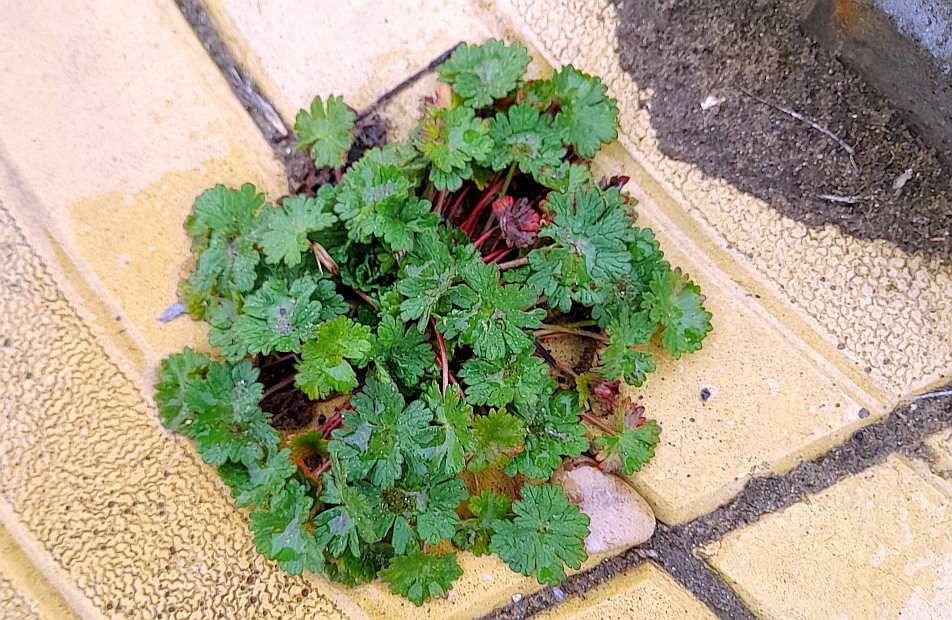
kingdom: Plantae
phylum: Tracheophyta
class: Magnoliopsida
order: Geraniales
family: Geraniaceae
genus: Geranium
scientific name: Geranium pusillum
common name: Small geranium
